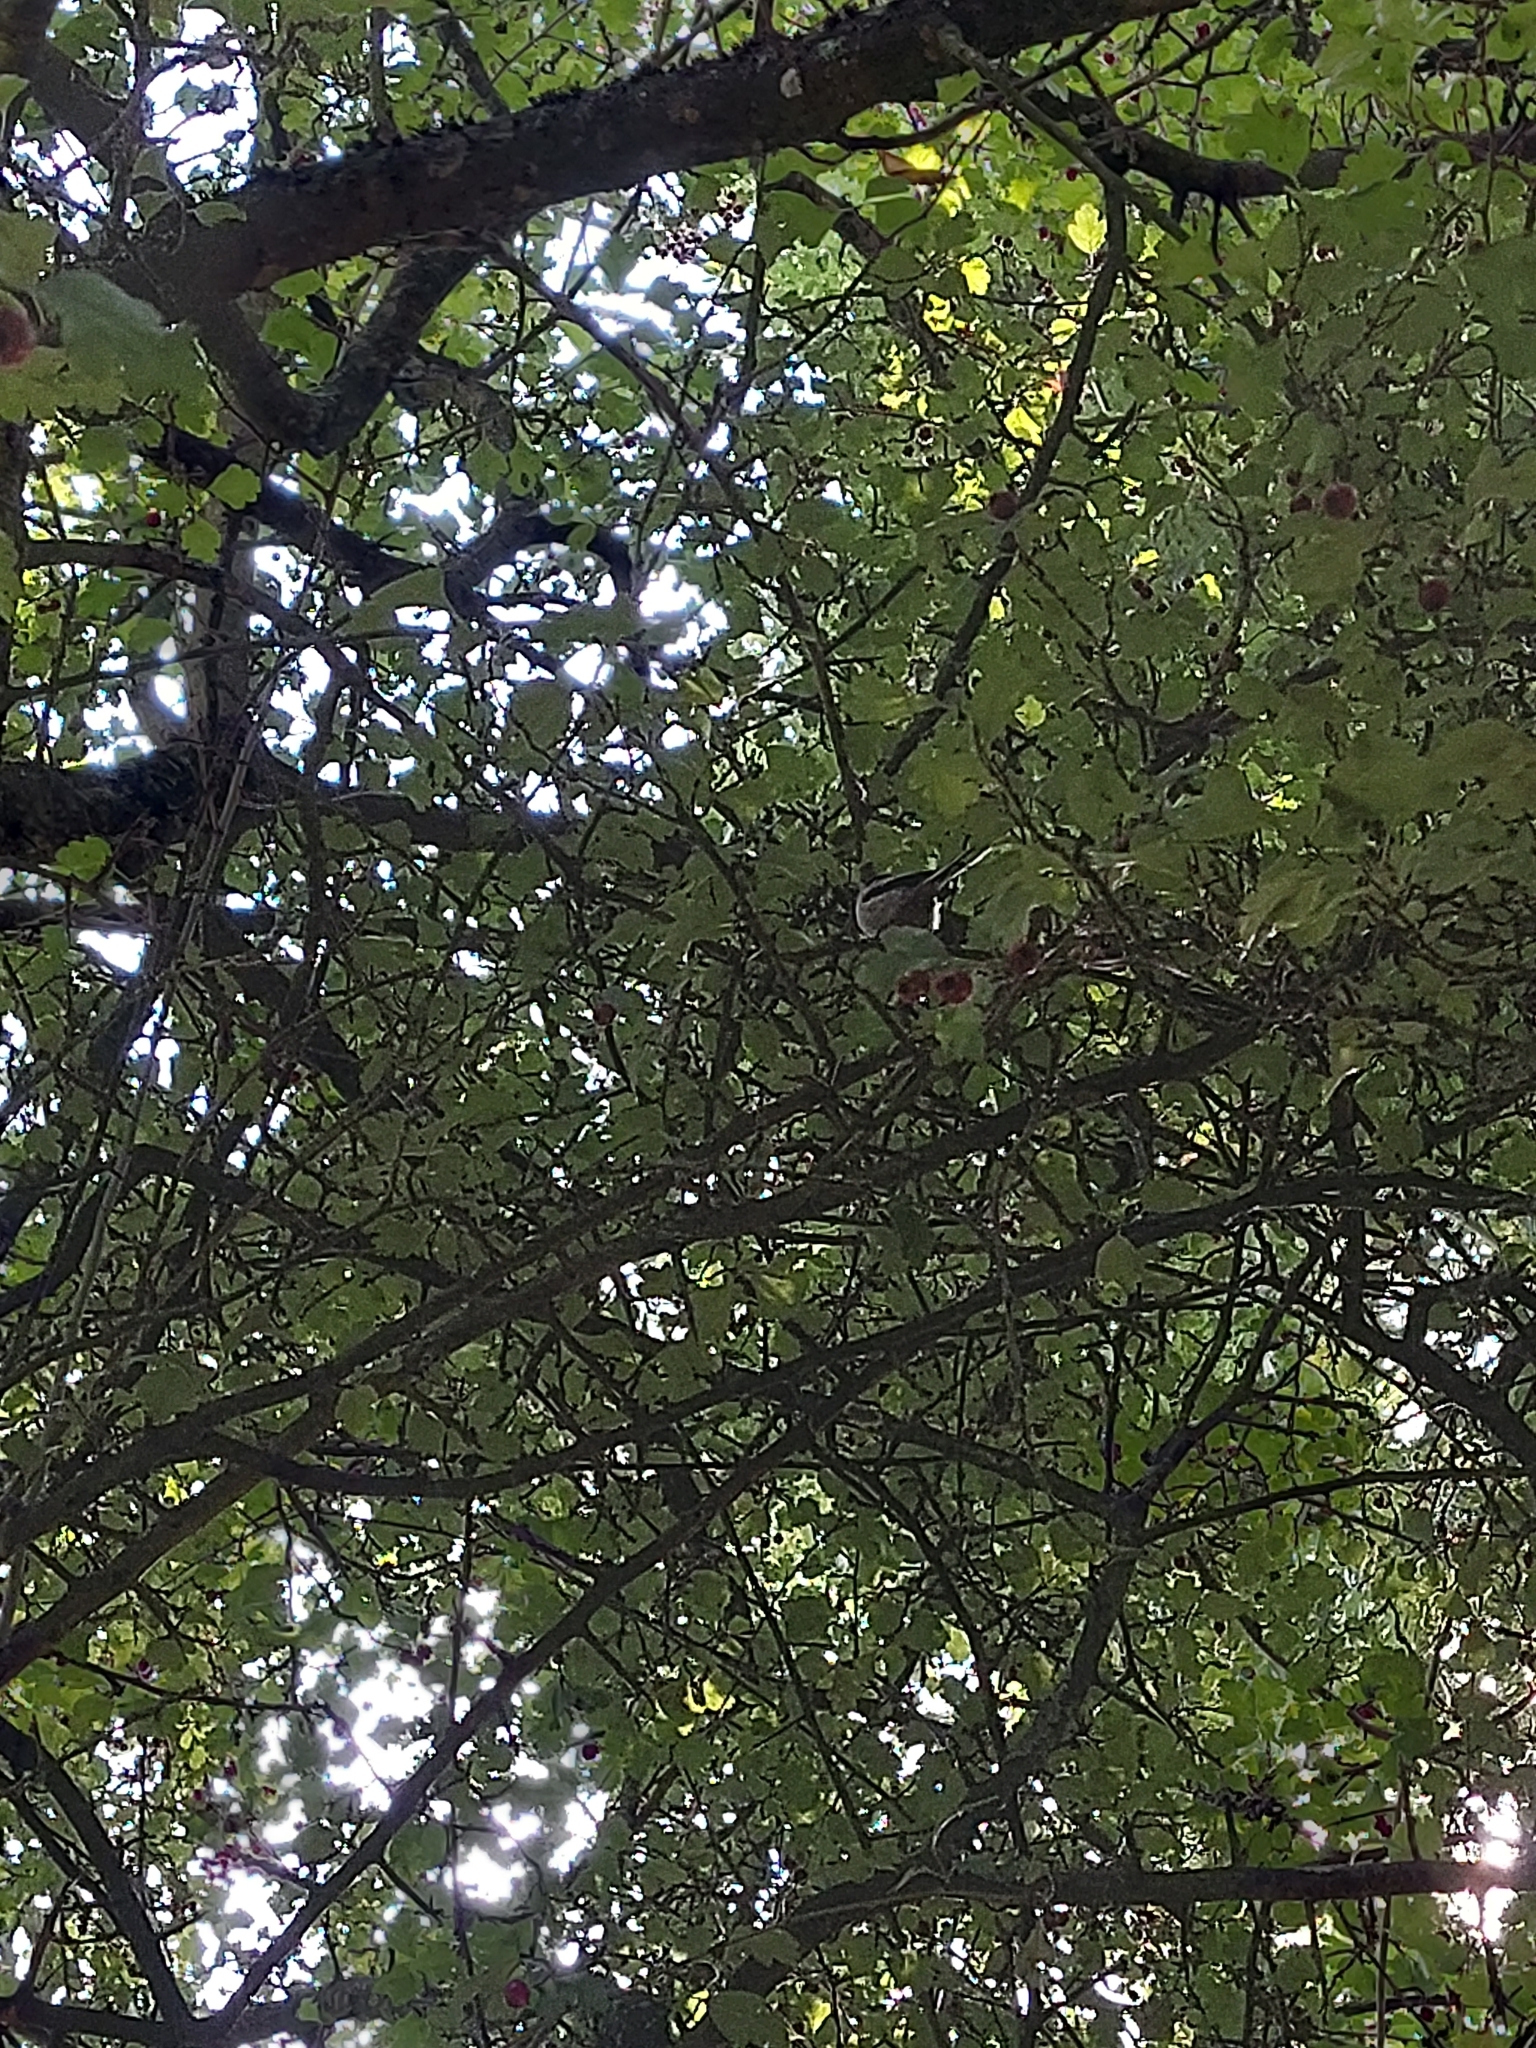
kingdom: Animalia
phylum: Chordata
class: Aves
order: Passeriformes
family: Aegithalidae
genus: Aegithalos
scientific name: Aegithalos caudatus
